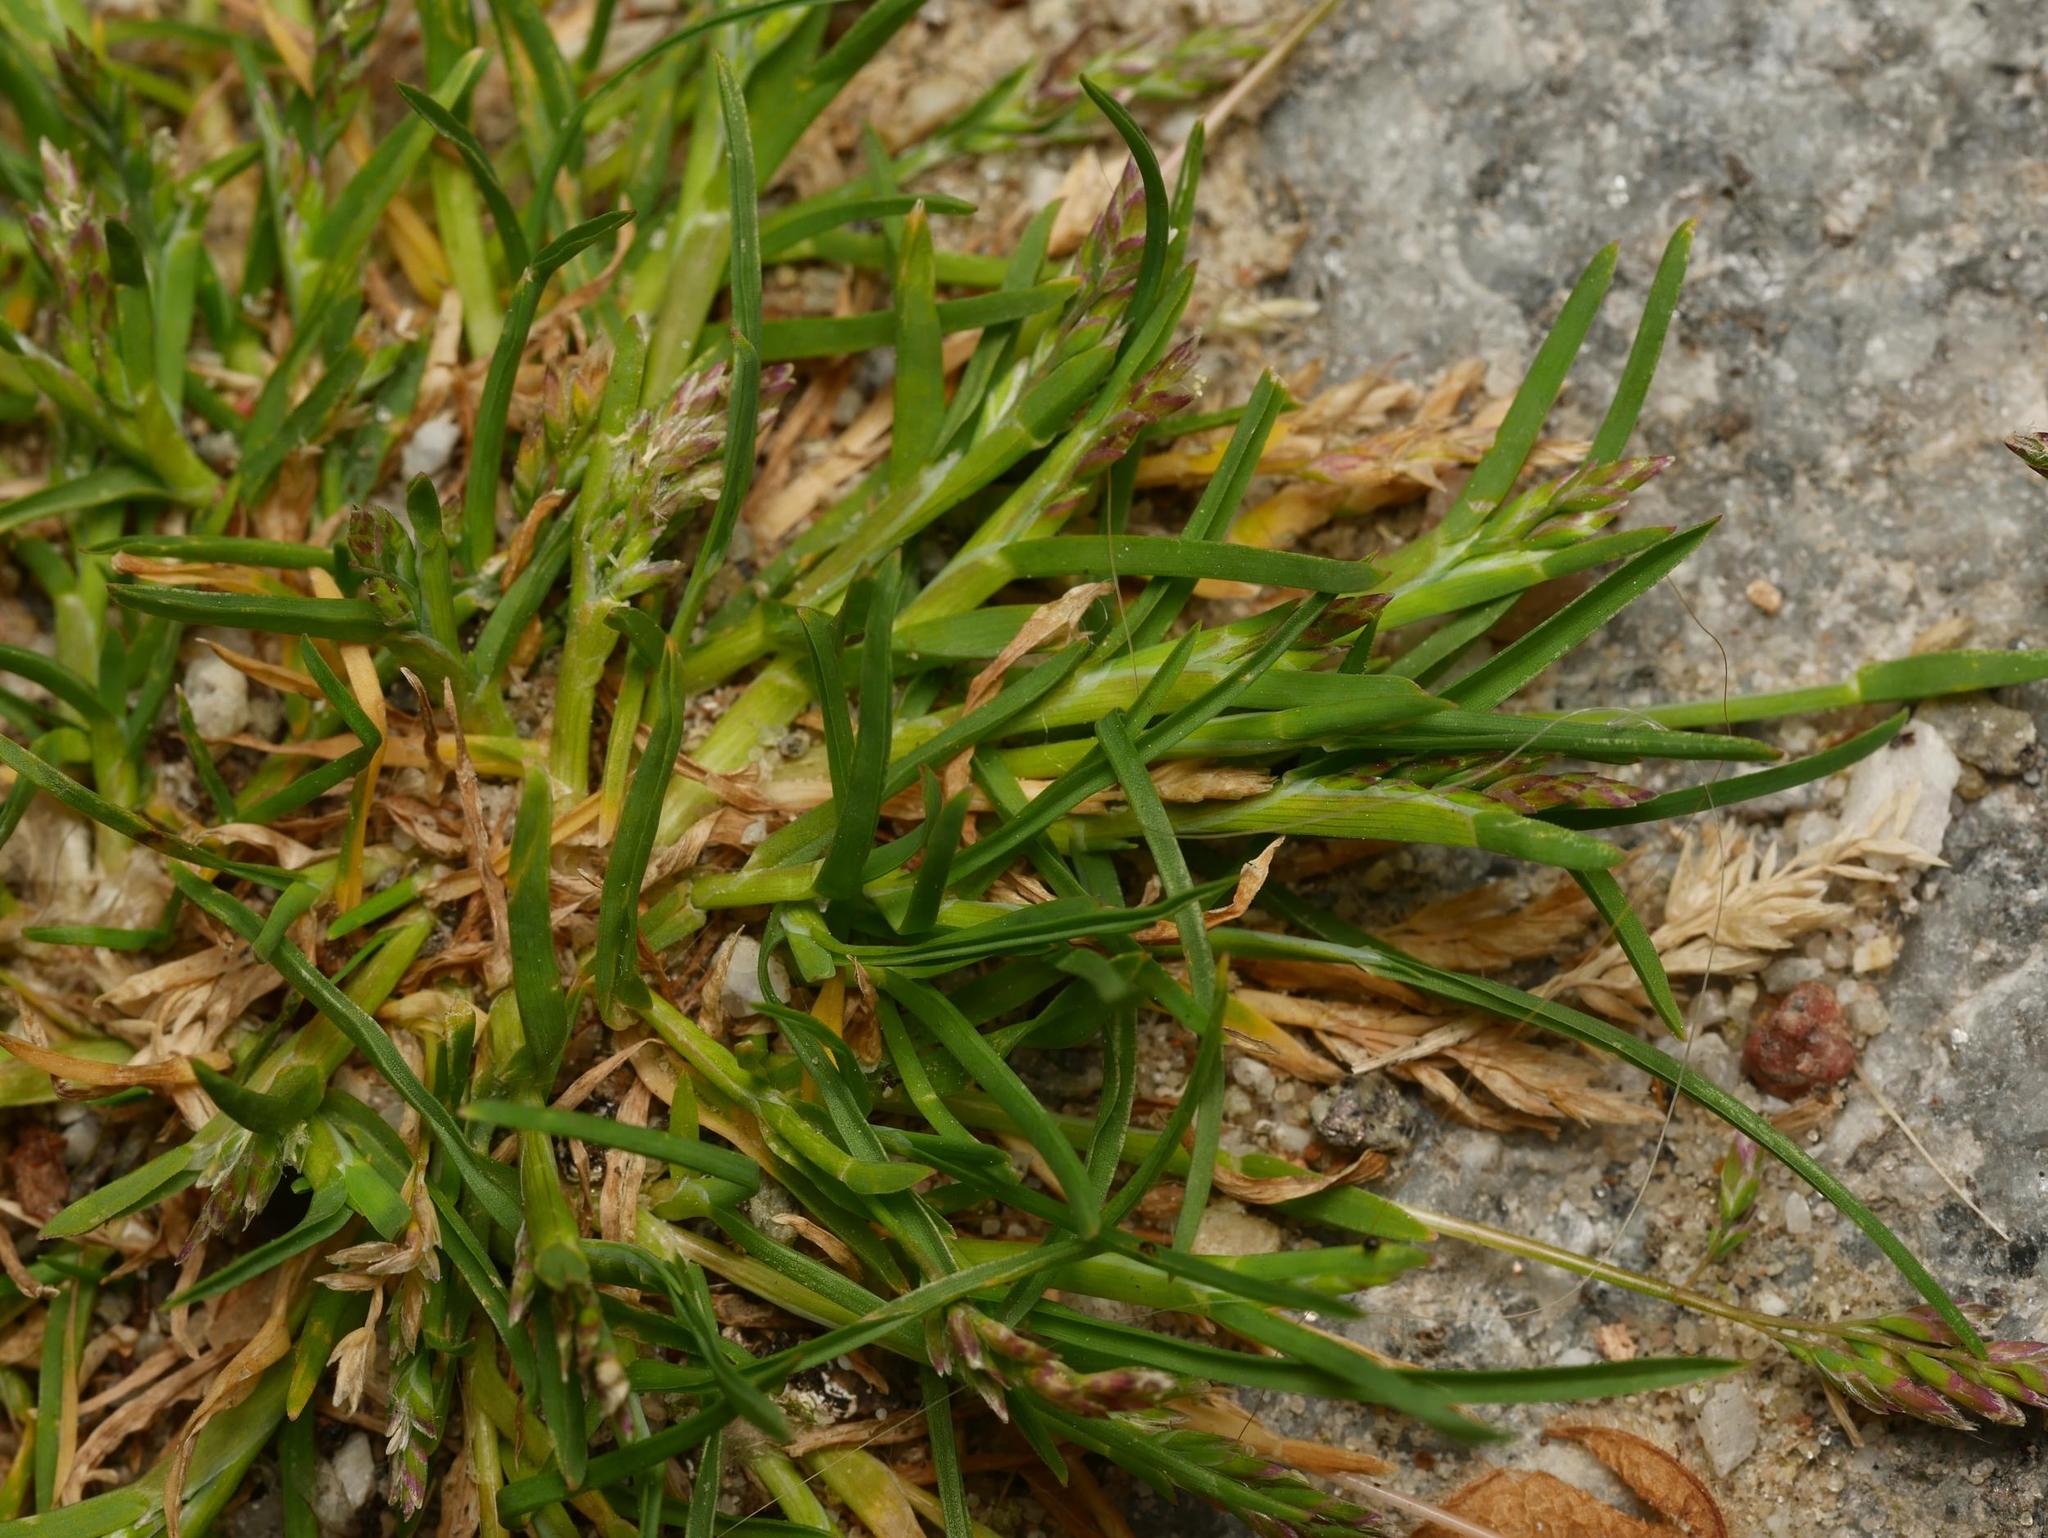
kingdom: Plantae
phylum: Tracheophyta
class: Liliopsida
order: Poales
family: Poaceae
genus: Poa
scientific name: Poa annua
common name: Annual bluegrass
